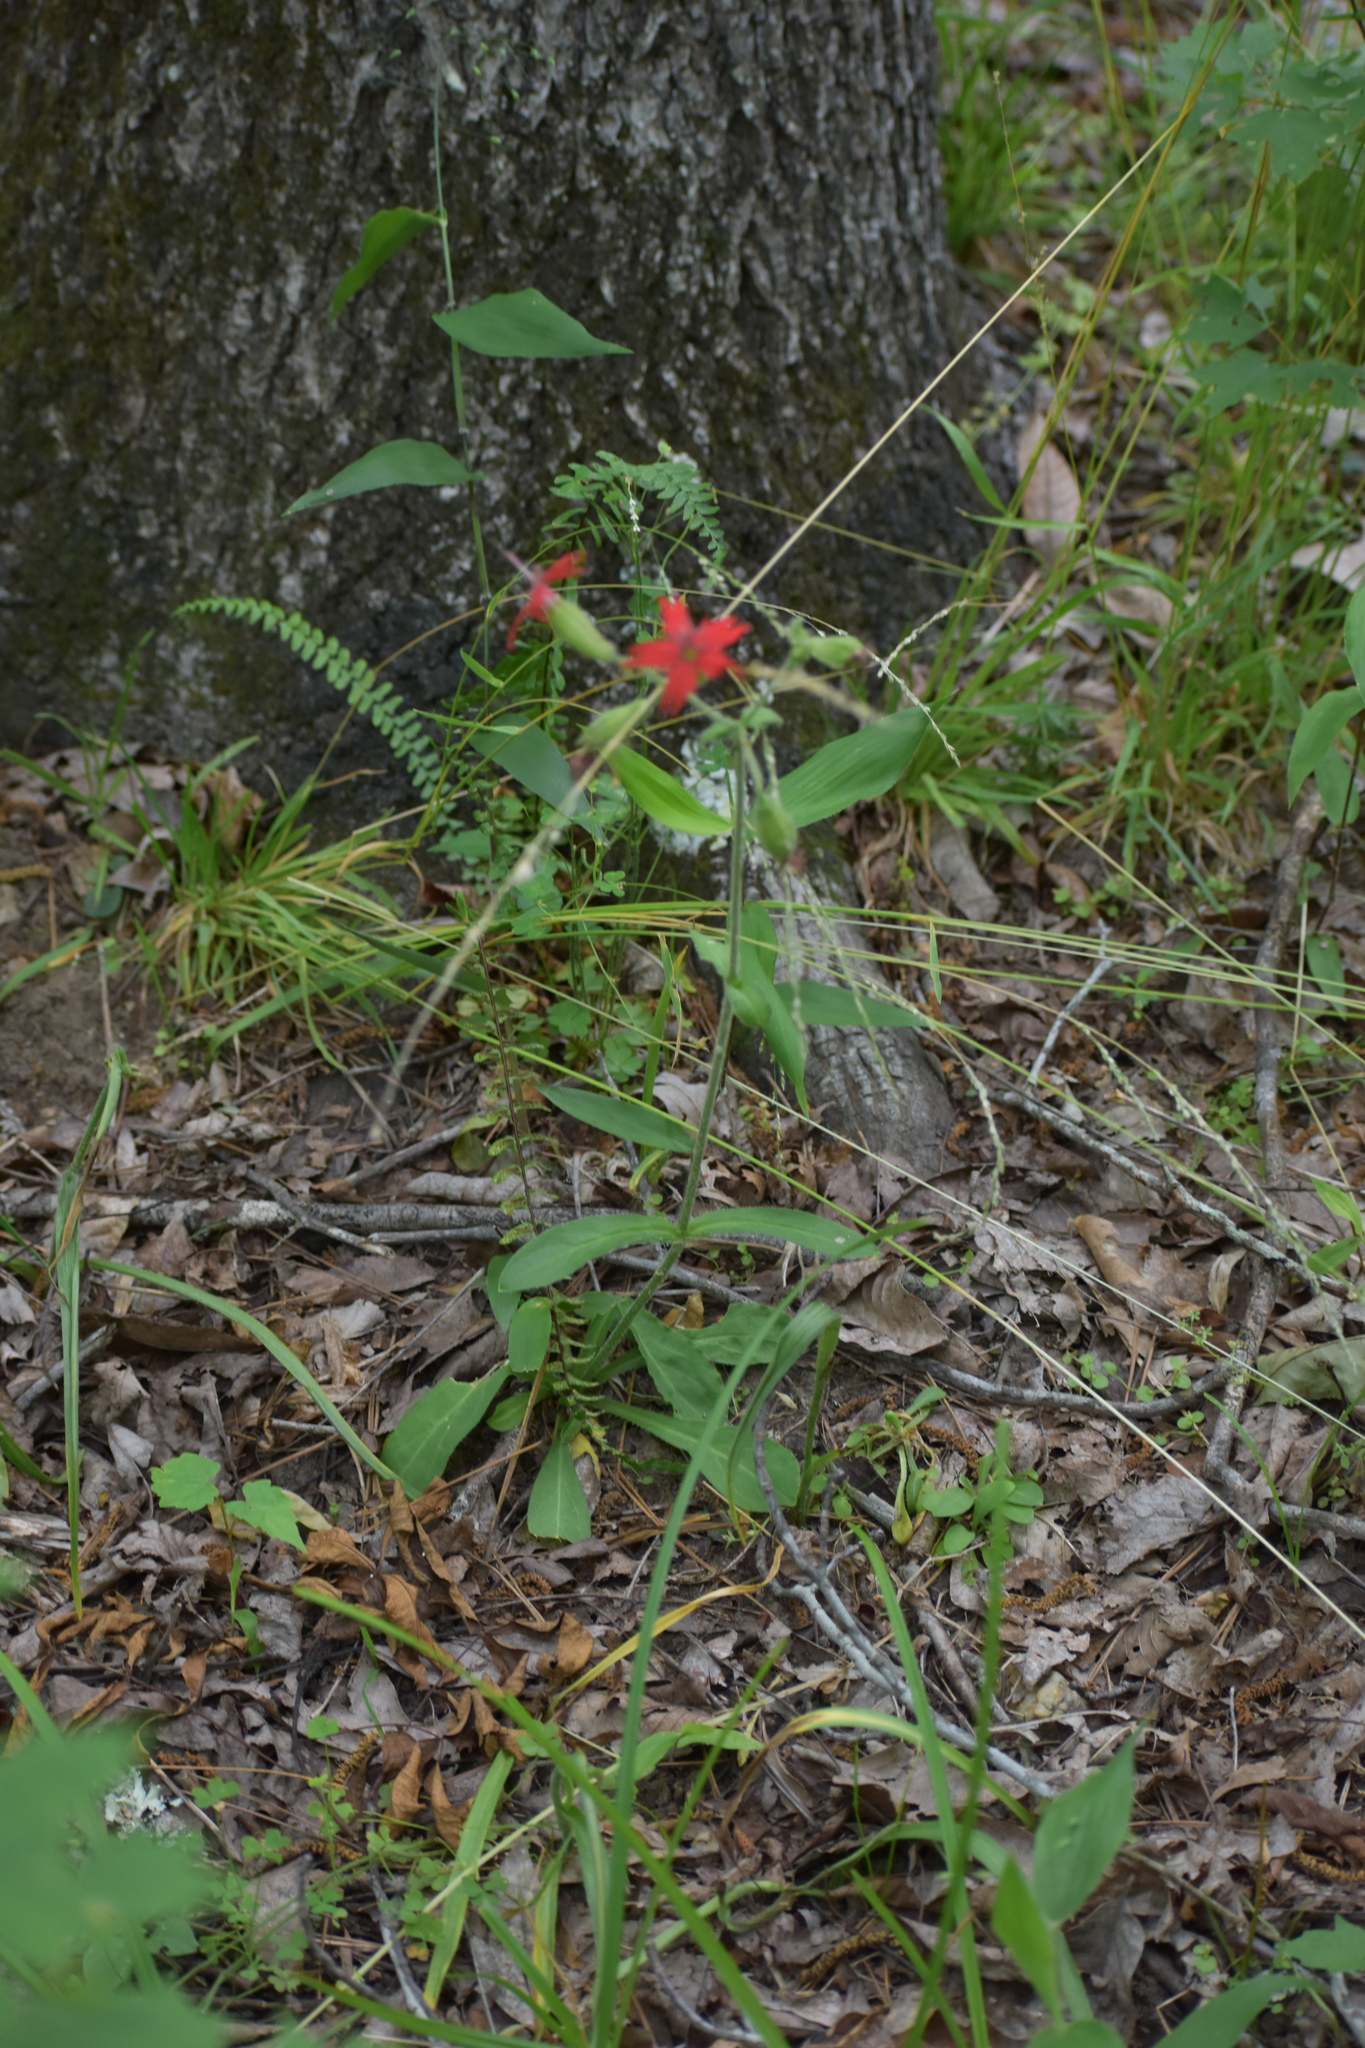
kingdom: Plantae
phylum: Tracheophyta
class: Magnoliopsida
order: Caryophyllales
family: Caryophyllaceae
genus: Silene
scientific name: Silene virginica
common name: Fire-pink
